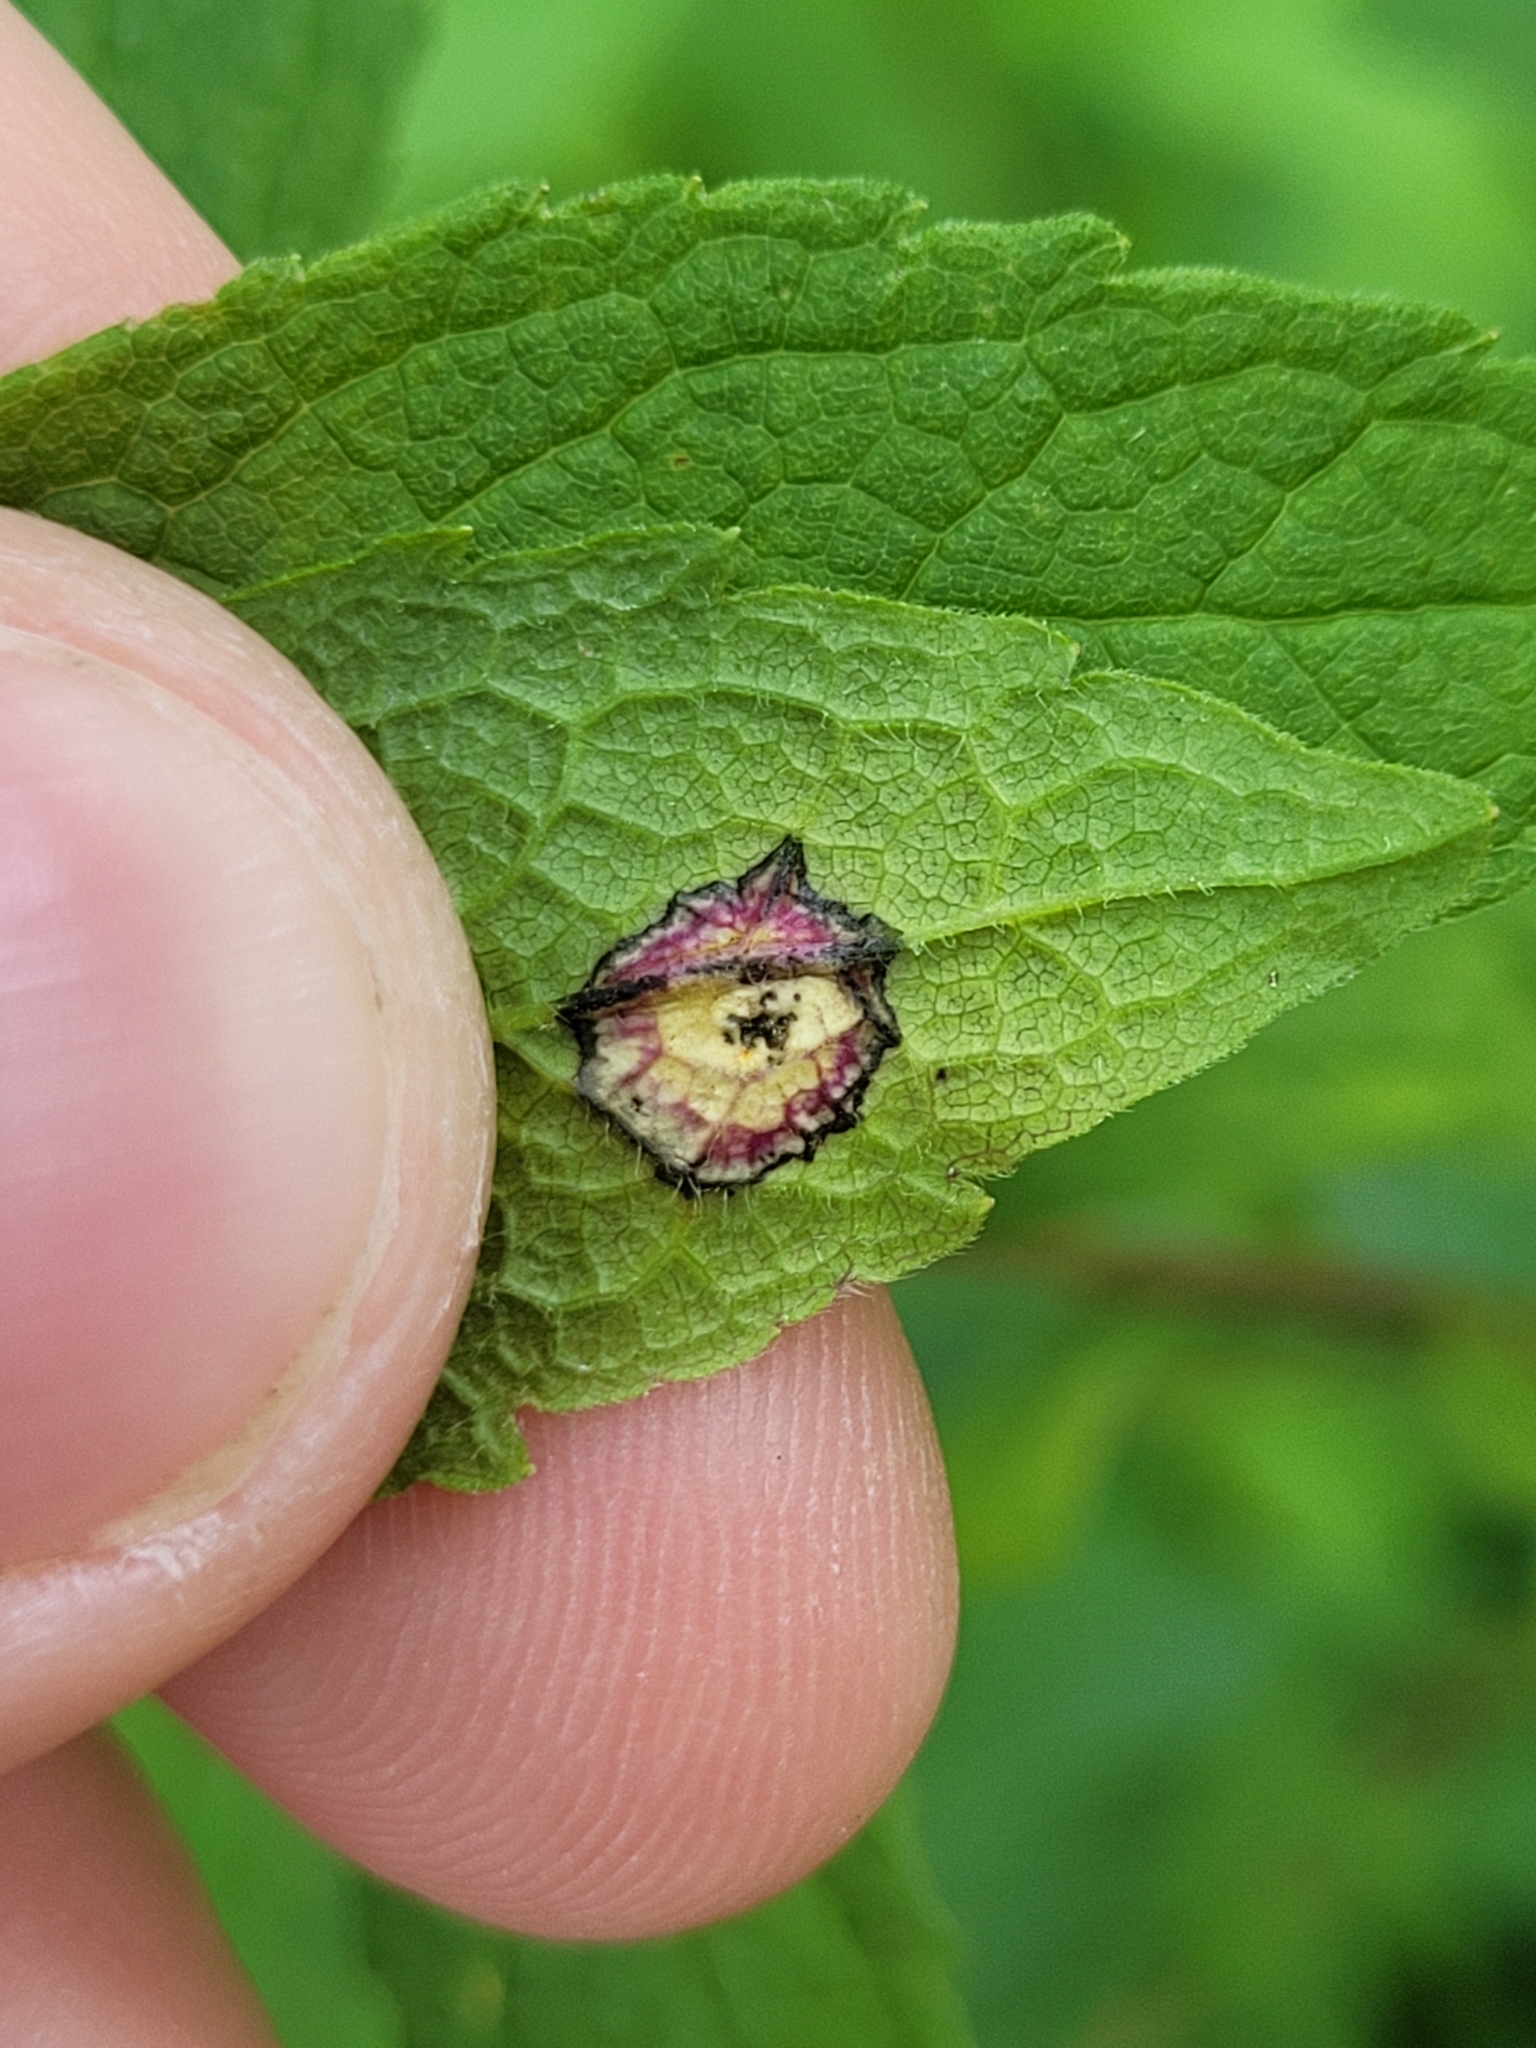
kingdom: Animalia
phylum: Arthropoda
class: Insecta
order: Diptera
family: Cecidomyiidae
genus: Asteromyia
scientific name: Asteromyia carbonifera
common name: Carbonifera goldenrod gall midge
